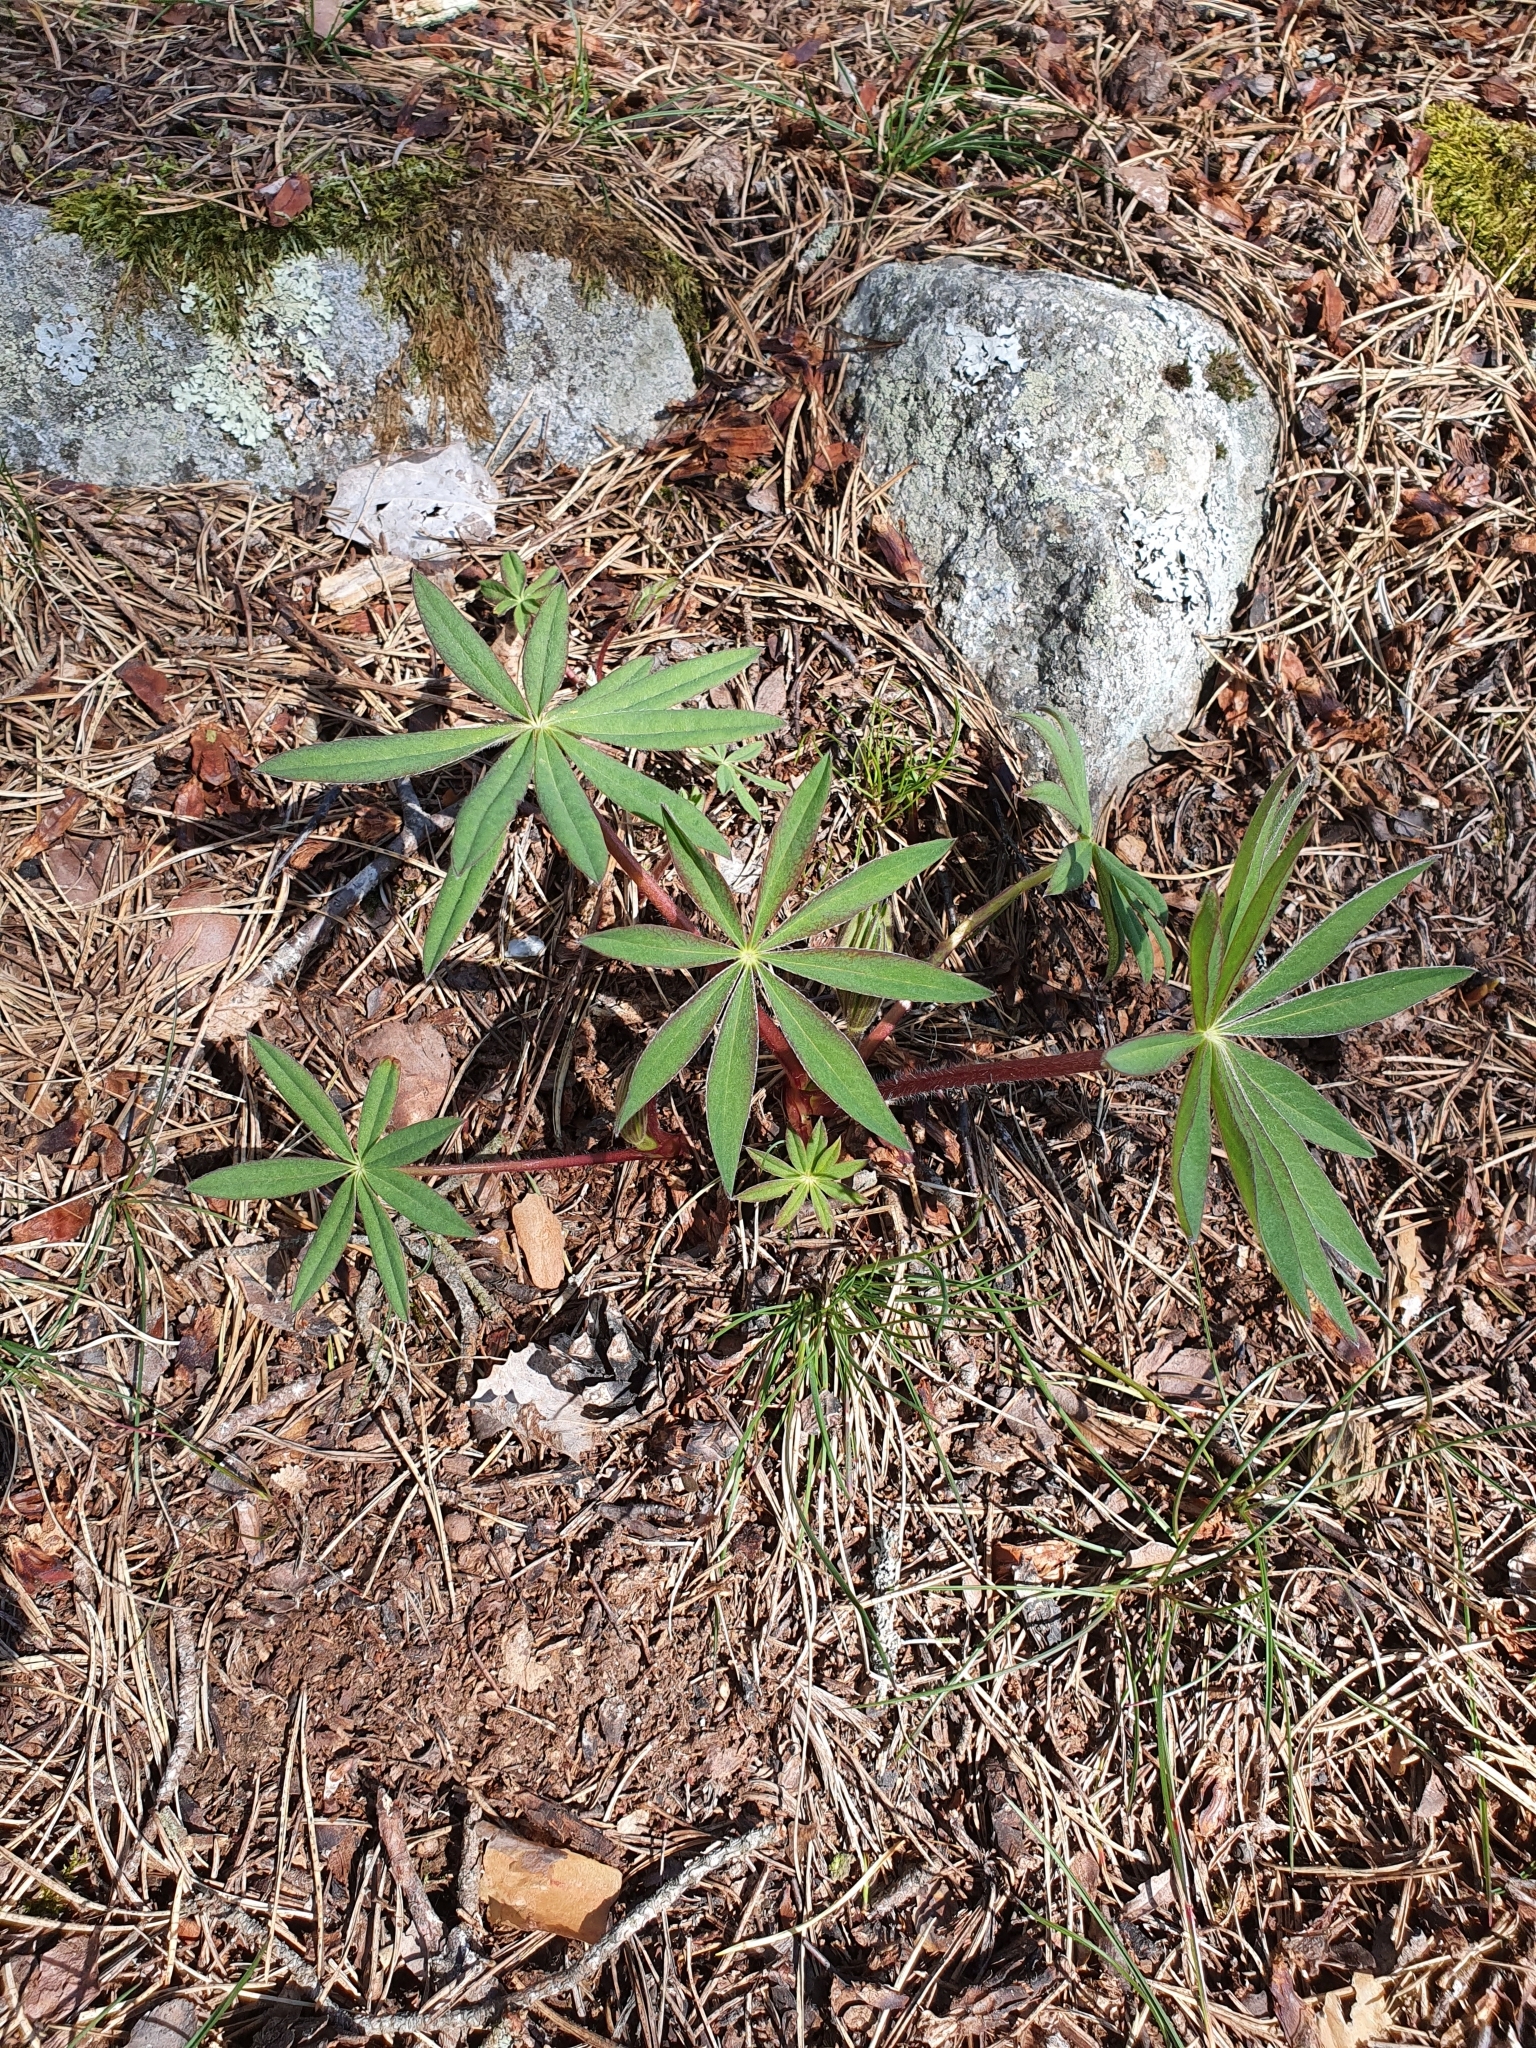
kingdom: Plantae
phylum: Tracheophyta
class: Magnoliopsida
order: Fabales
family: Fabaceae
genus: Lupinus
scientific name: Lupinus polyphyllus
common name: Garden lupin
